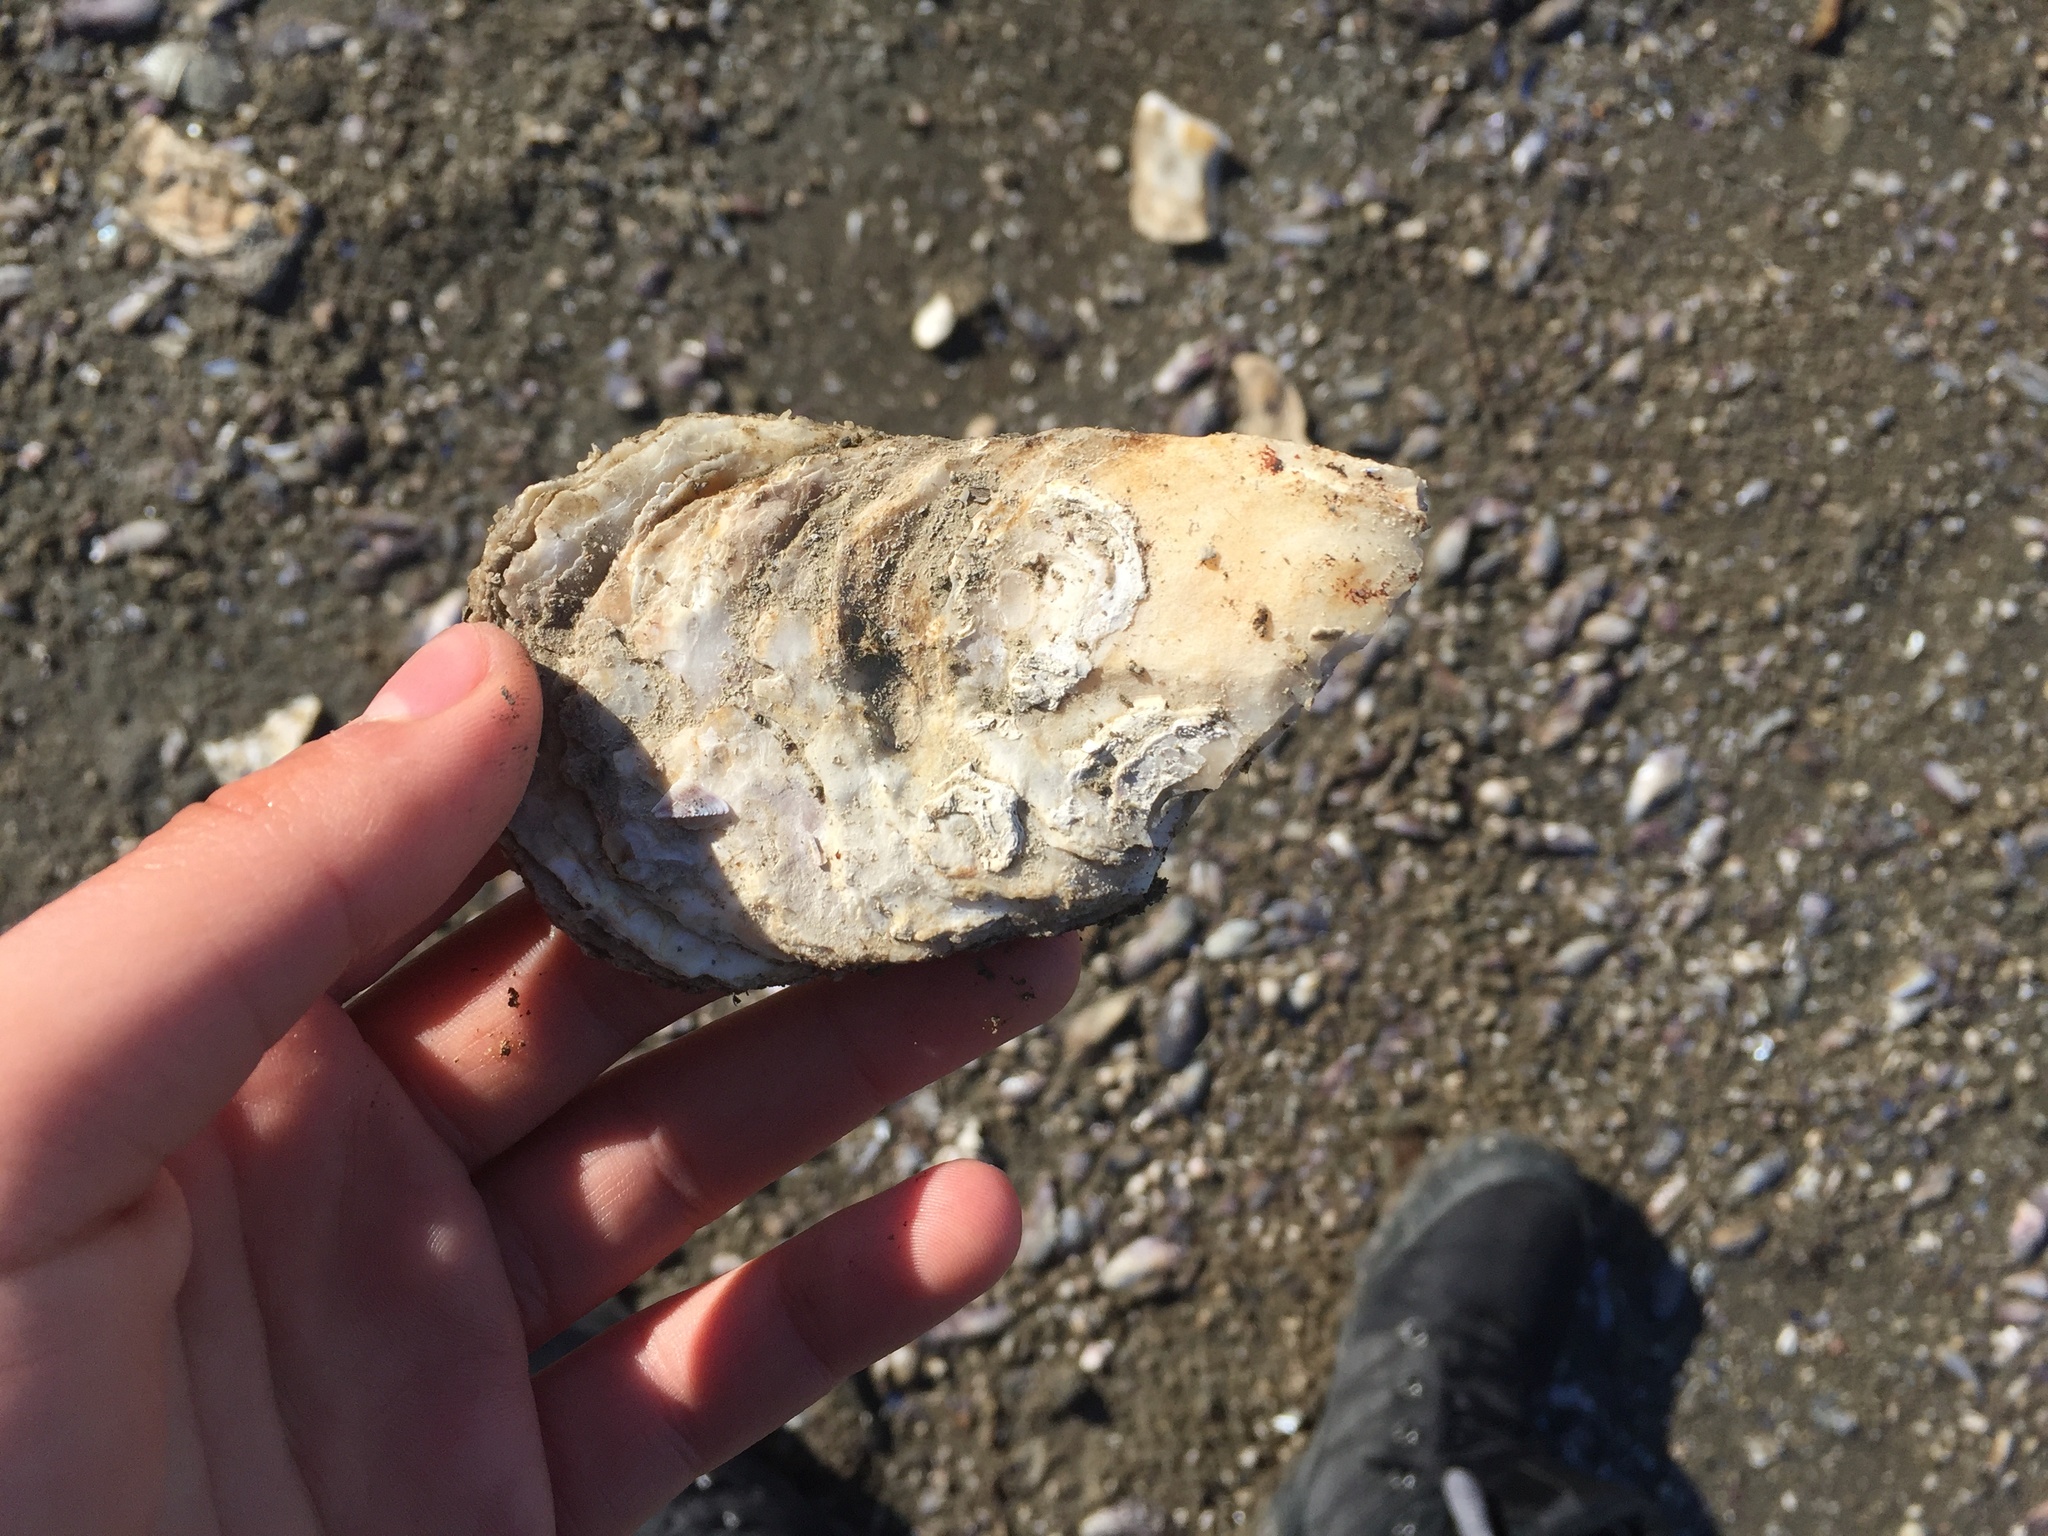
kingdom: Animalia
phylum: Mollusca
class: Bivalvia
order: Ostreida
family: Ostreidae
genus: Magallana
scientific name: Magallana gigas
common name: Pacific oyster
